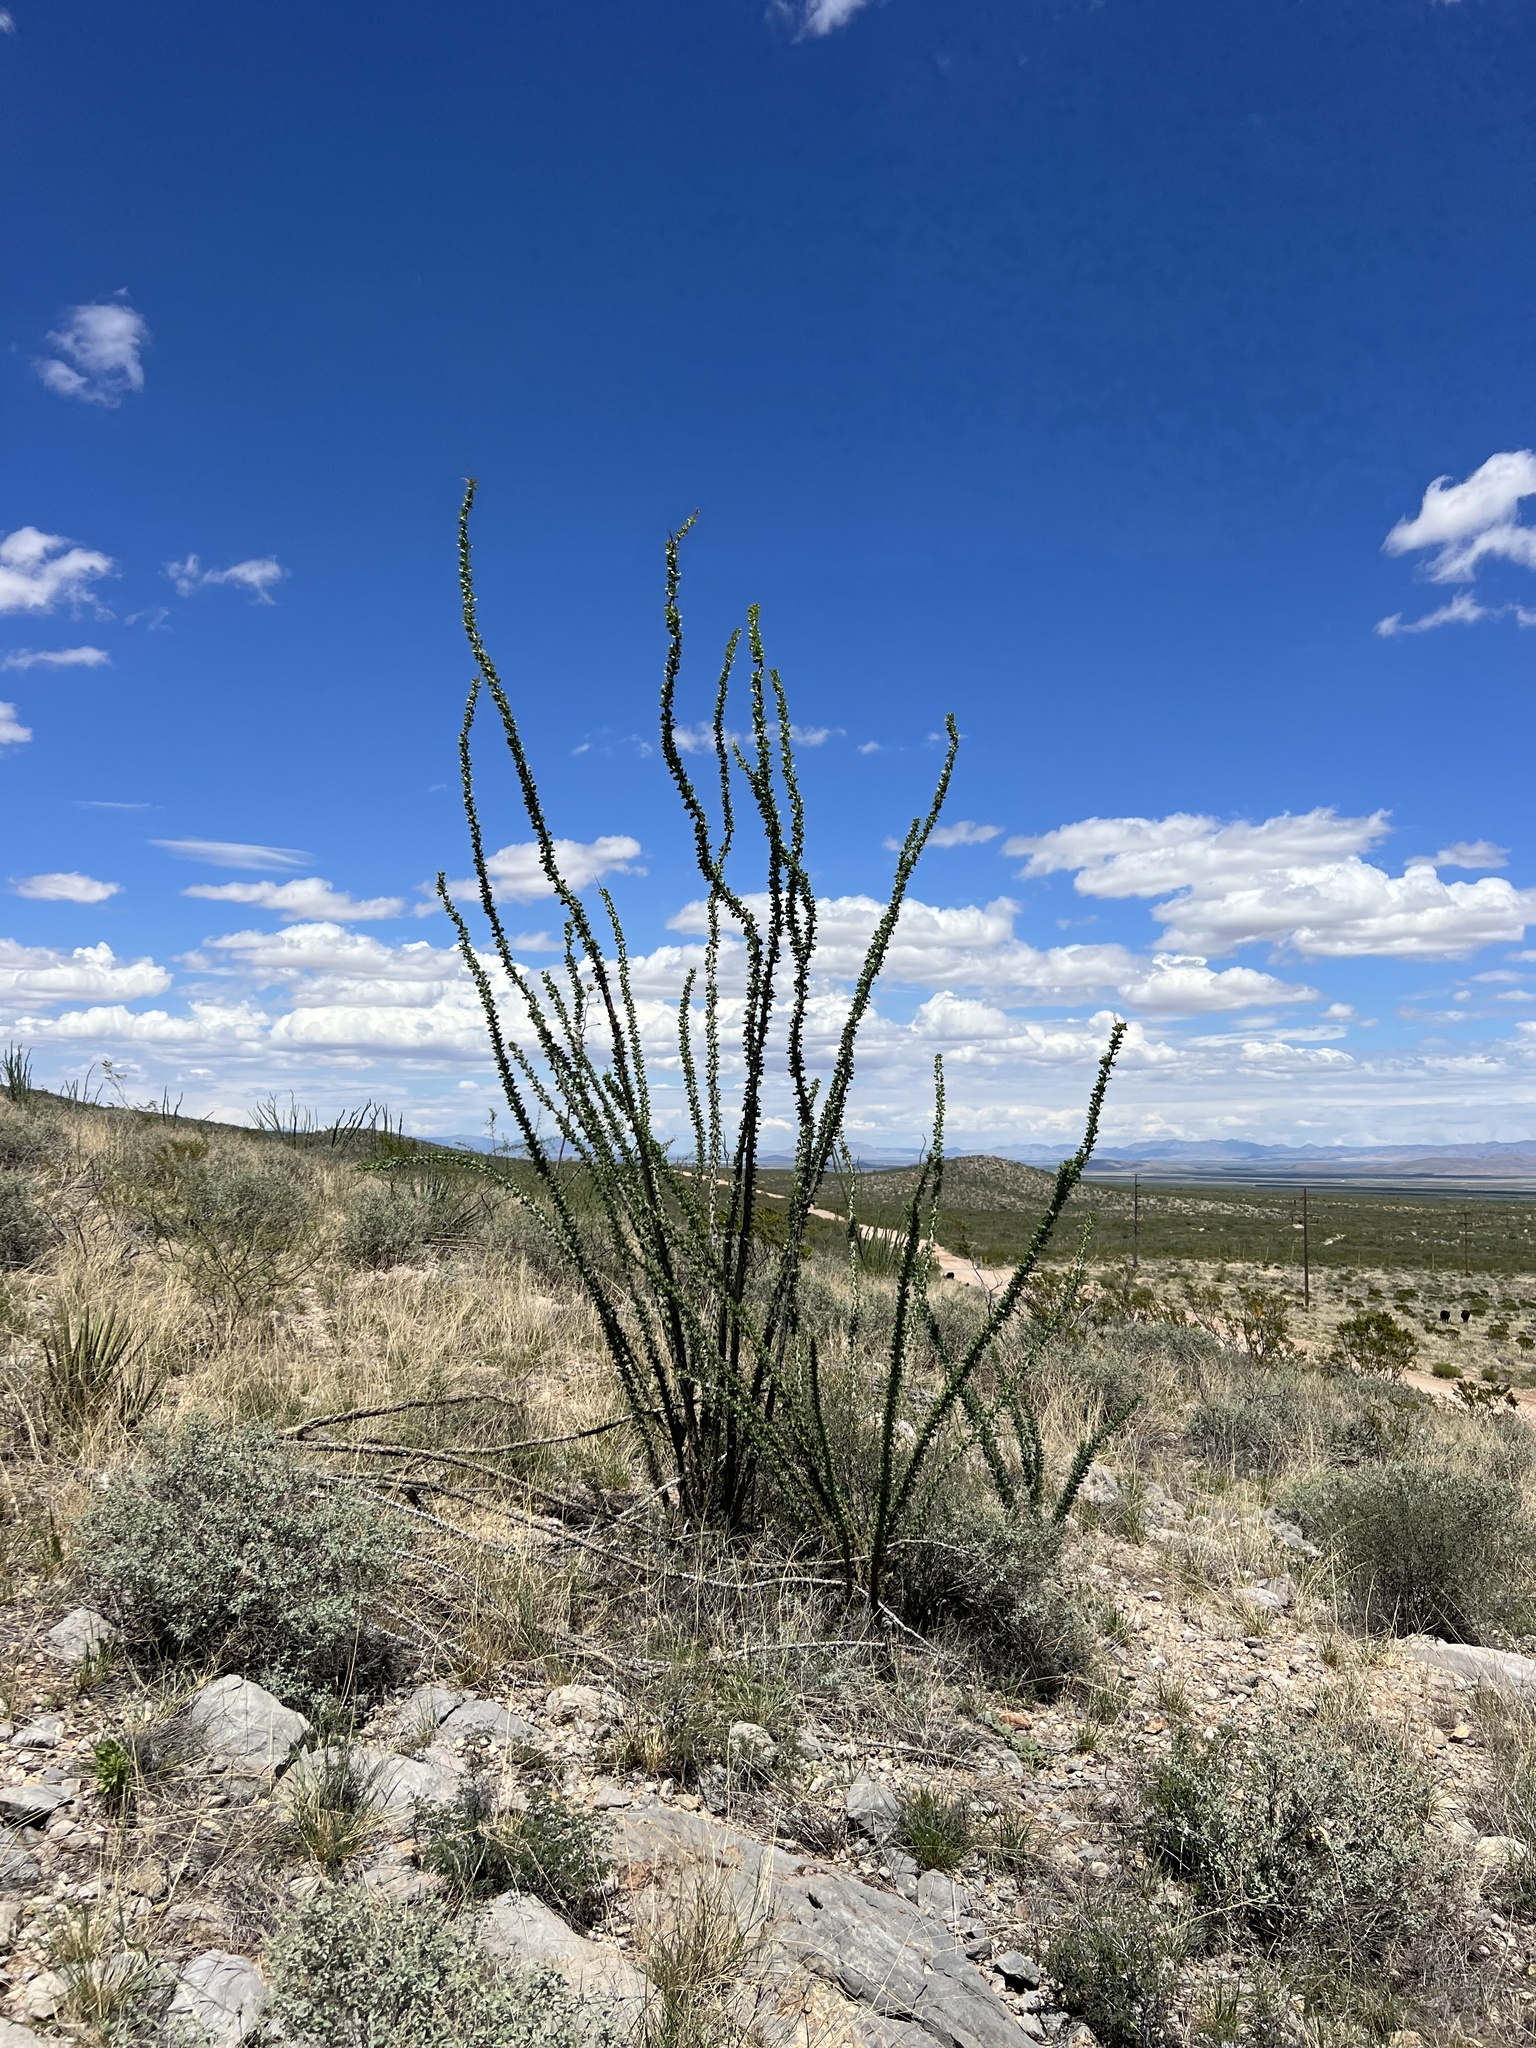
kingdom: Plantae
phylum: Tracheophyta
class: Magnoliopsida
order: Ericales
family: Fouquieriaceae
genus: Fouquieria
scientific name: Fouquieria splendens
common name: Vine-cactus
